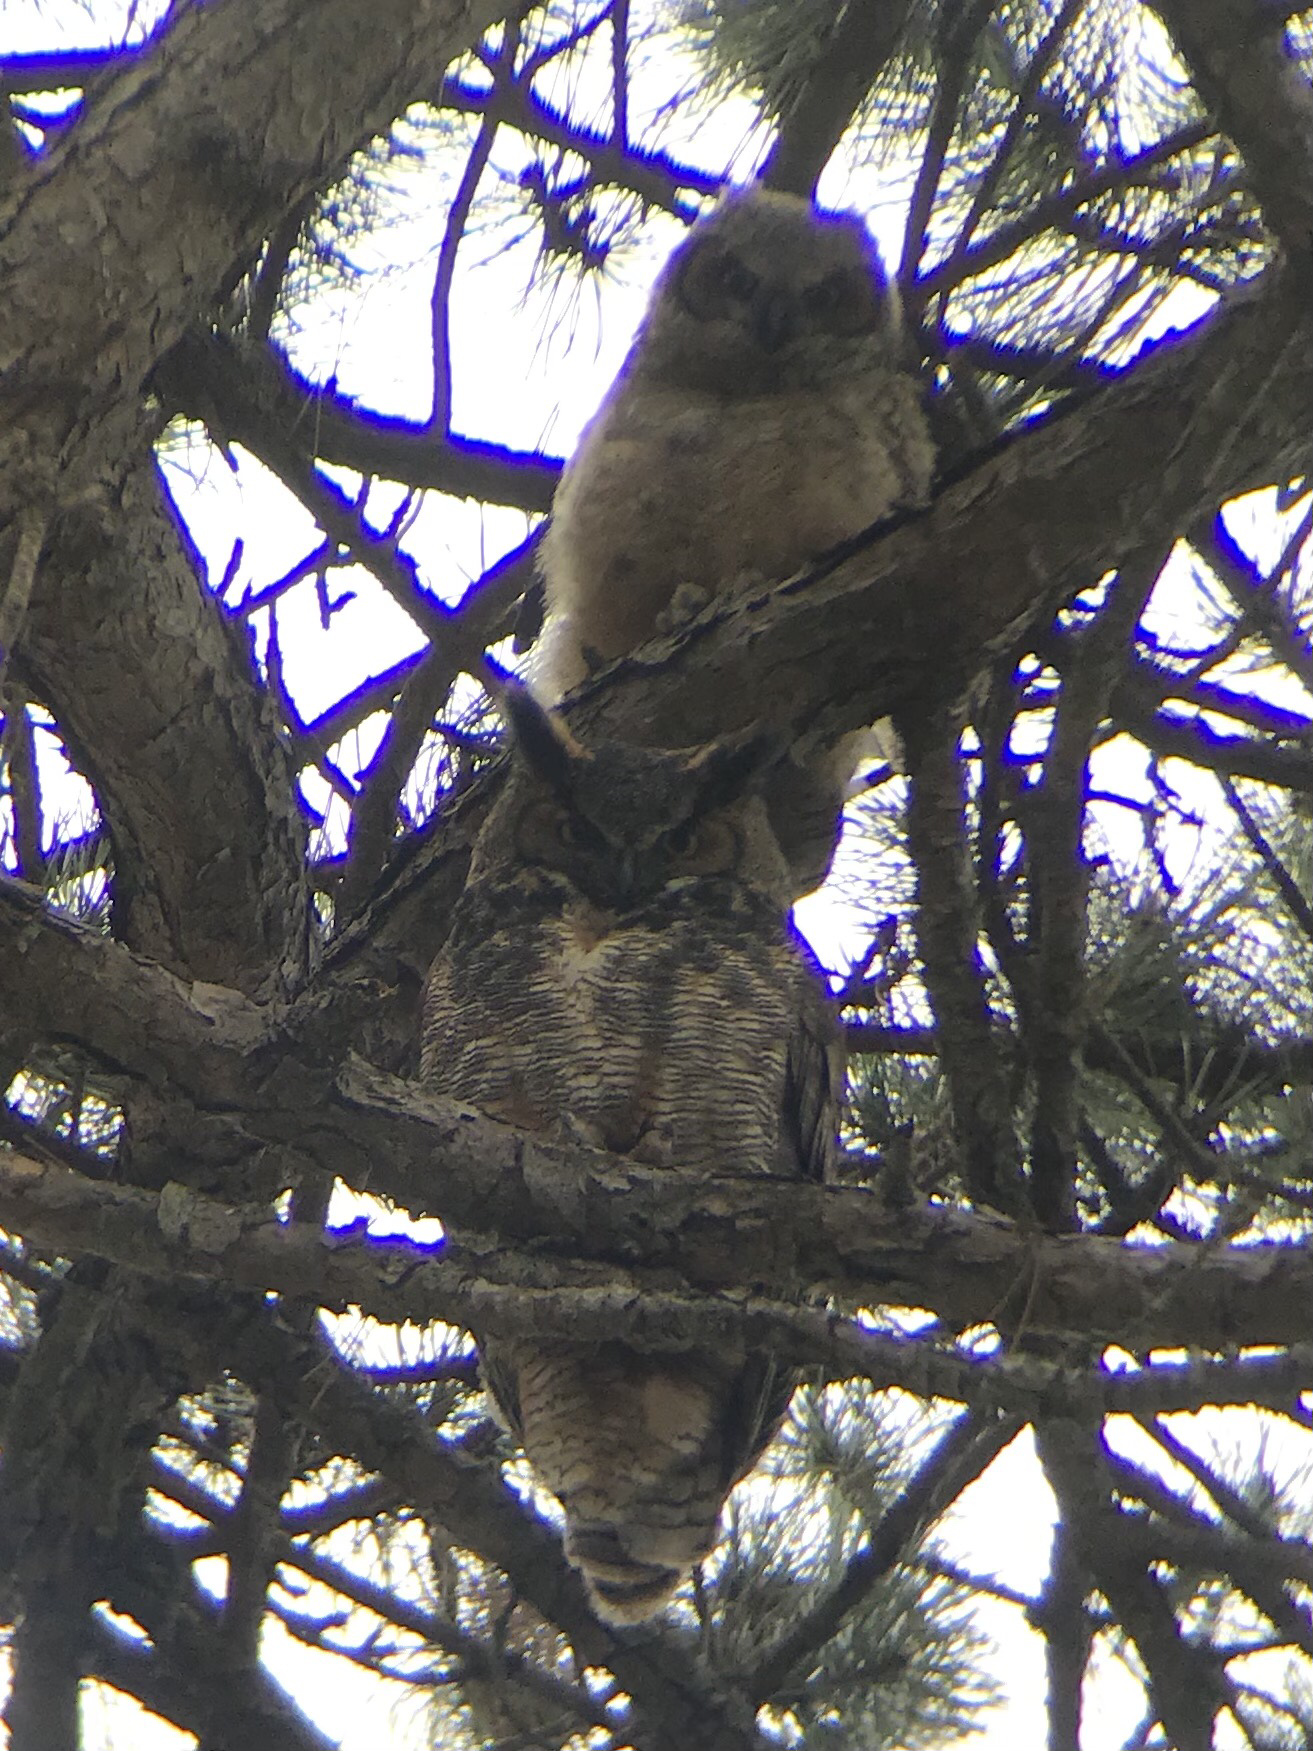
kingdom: Animalia
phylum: Chordata
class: Aves
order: Strigiformes
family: Strigidae
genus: Bubo
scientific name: Bubo virginianus
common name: Great horned owl
